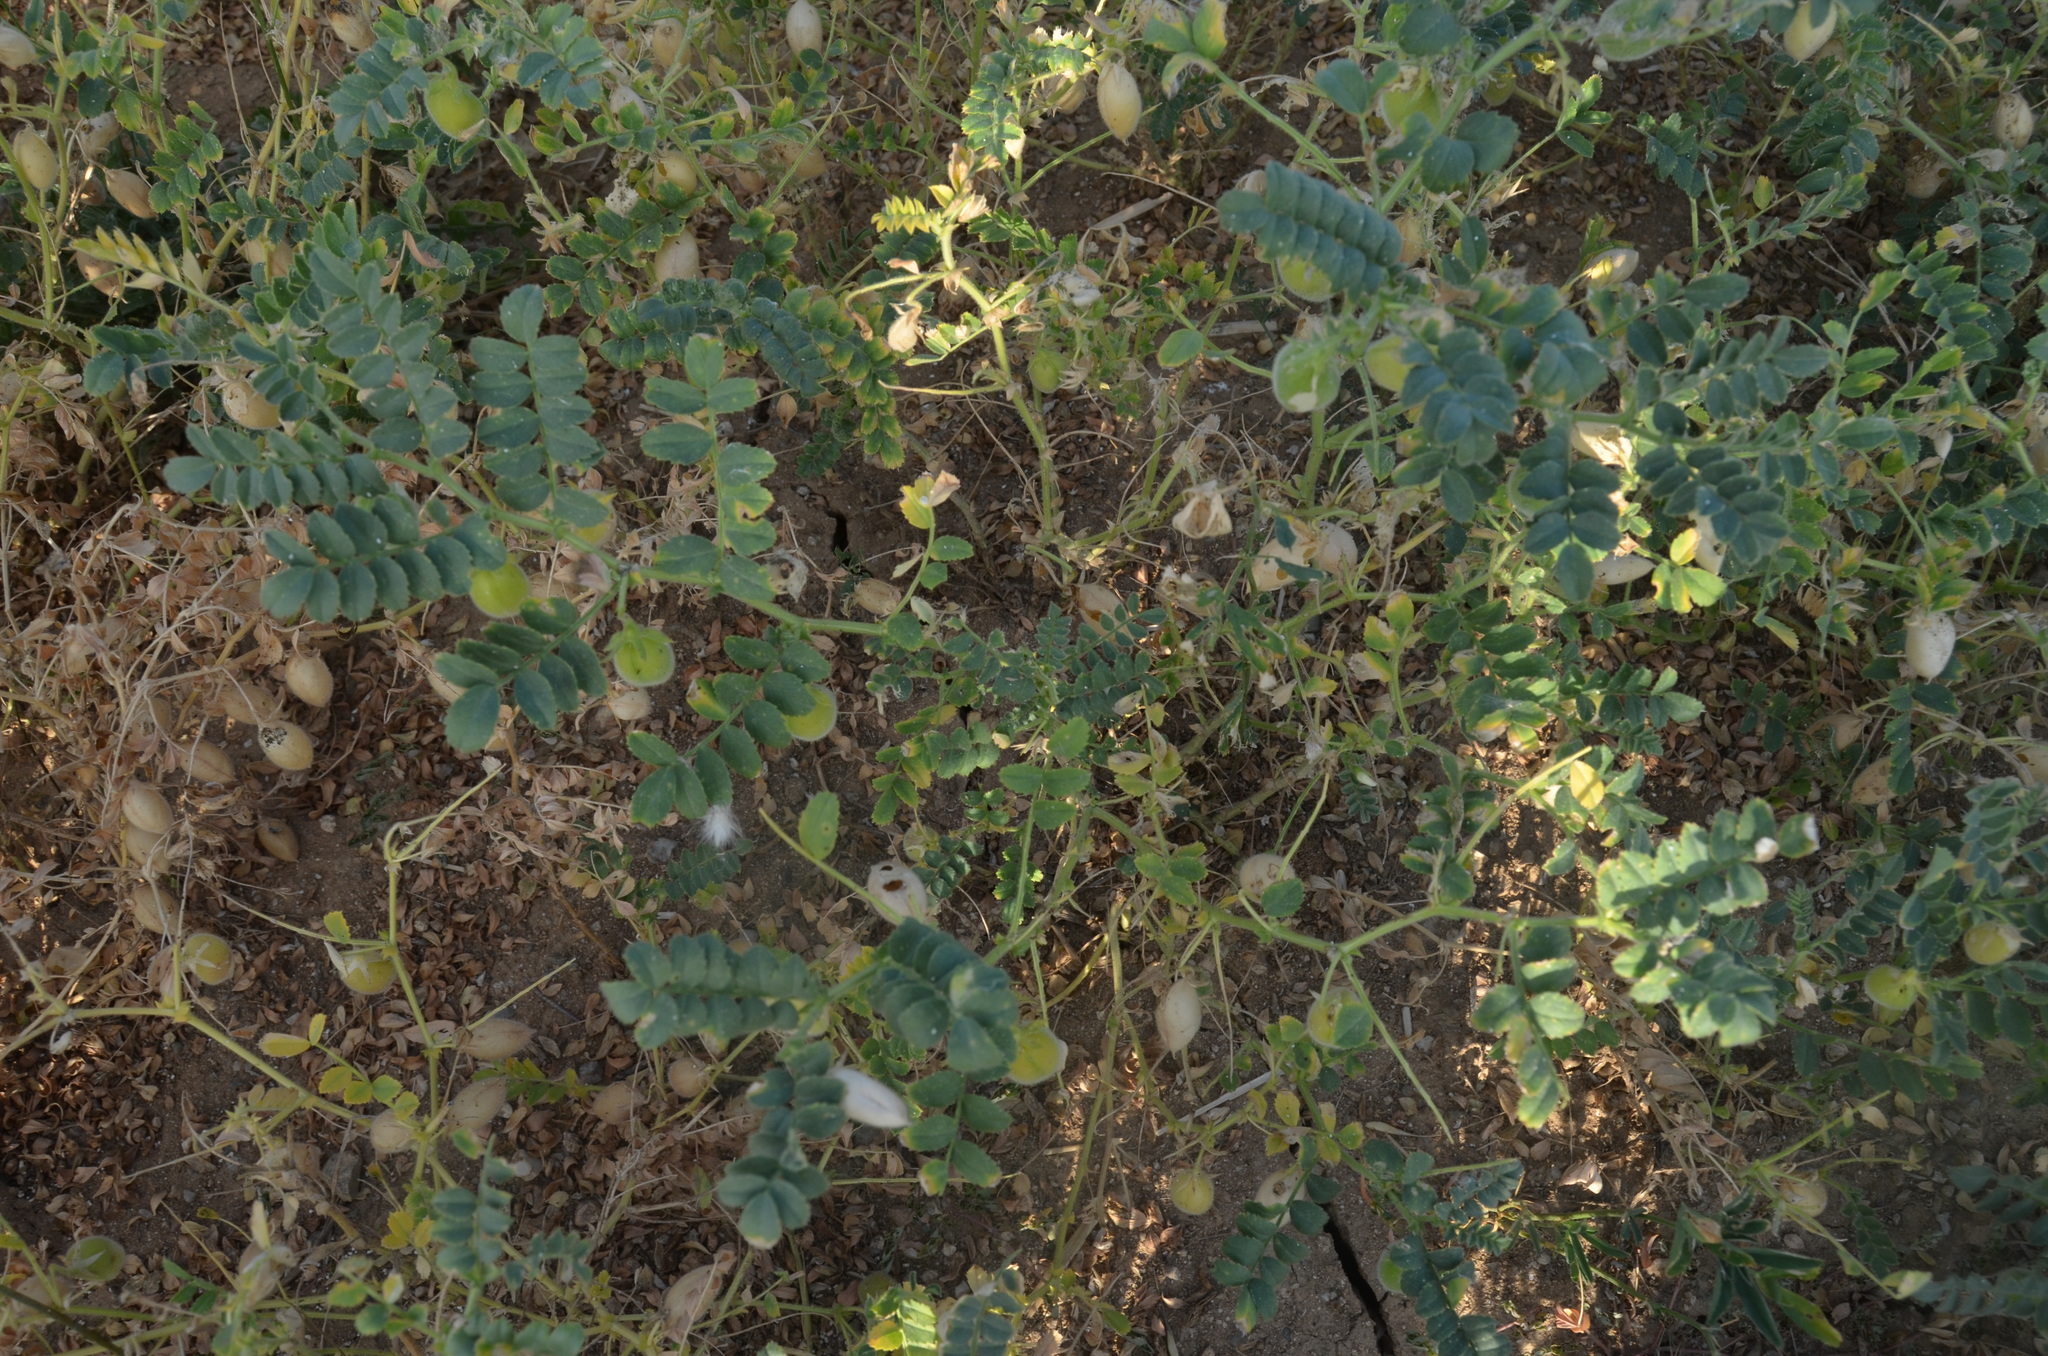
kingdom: Plantae
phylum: Tracheophyta
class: Magnoliopsida
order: Fabales
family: Fabaceae
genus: Cicer
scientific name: Cicer arietinum
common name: Chick pea
